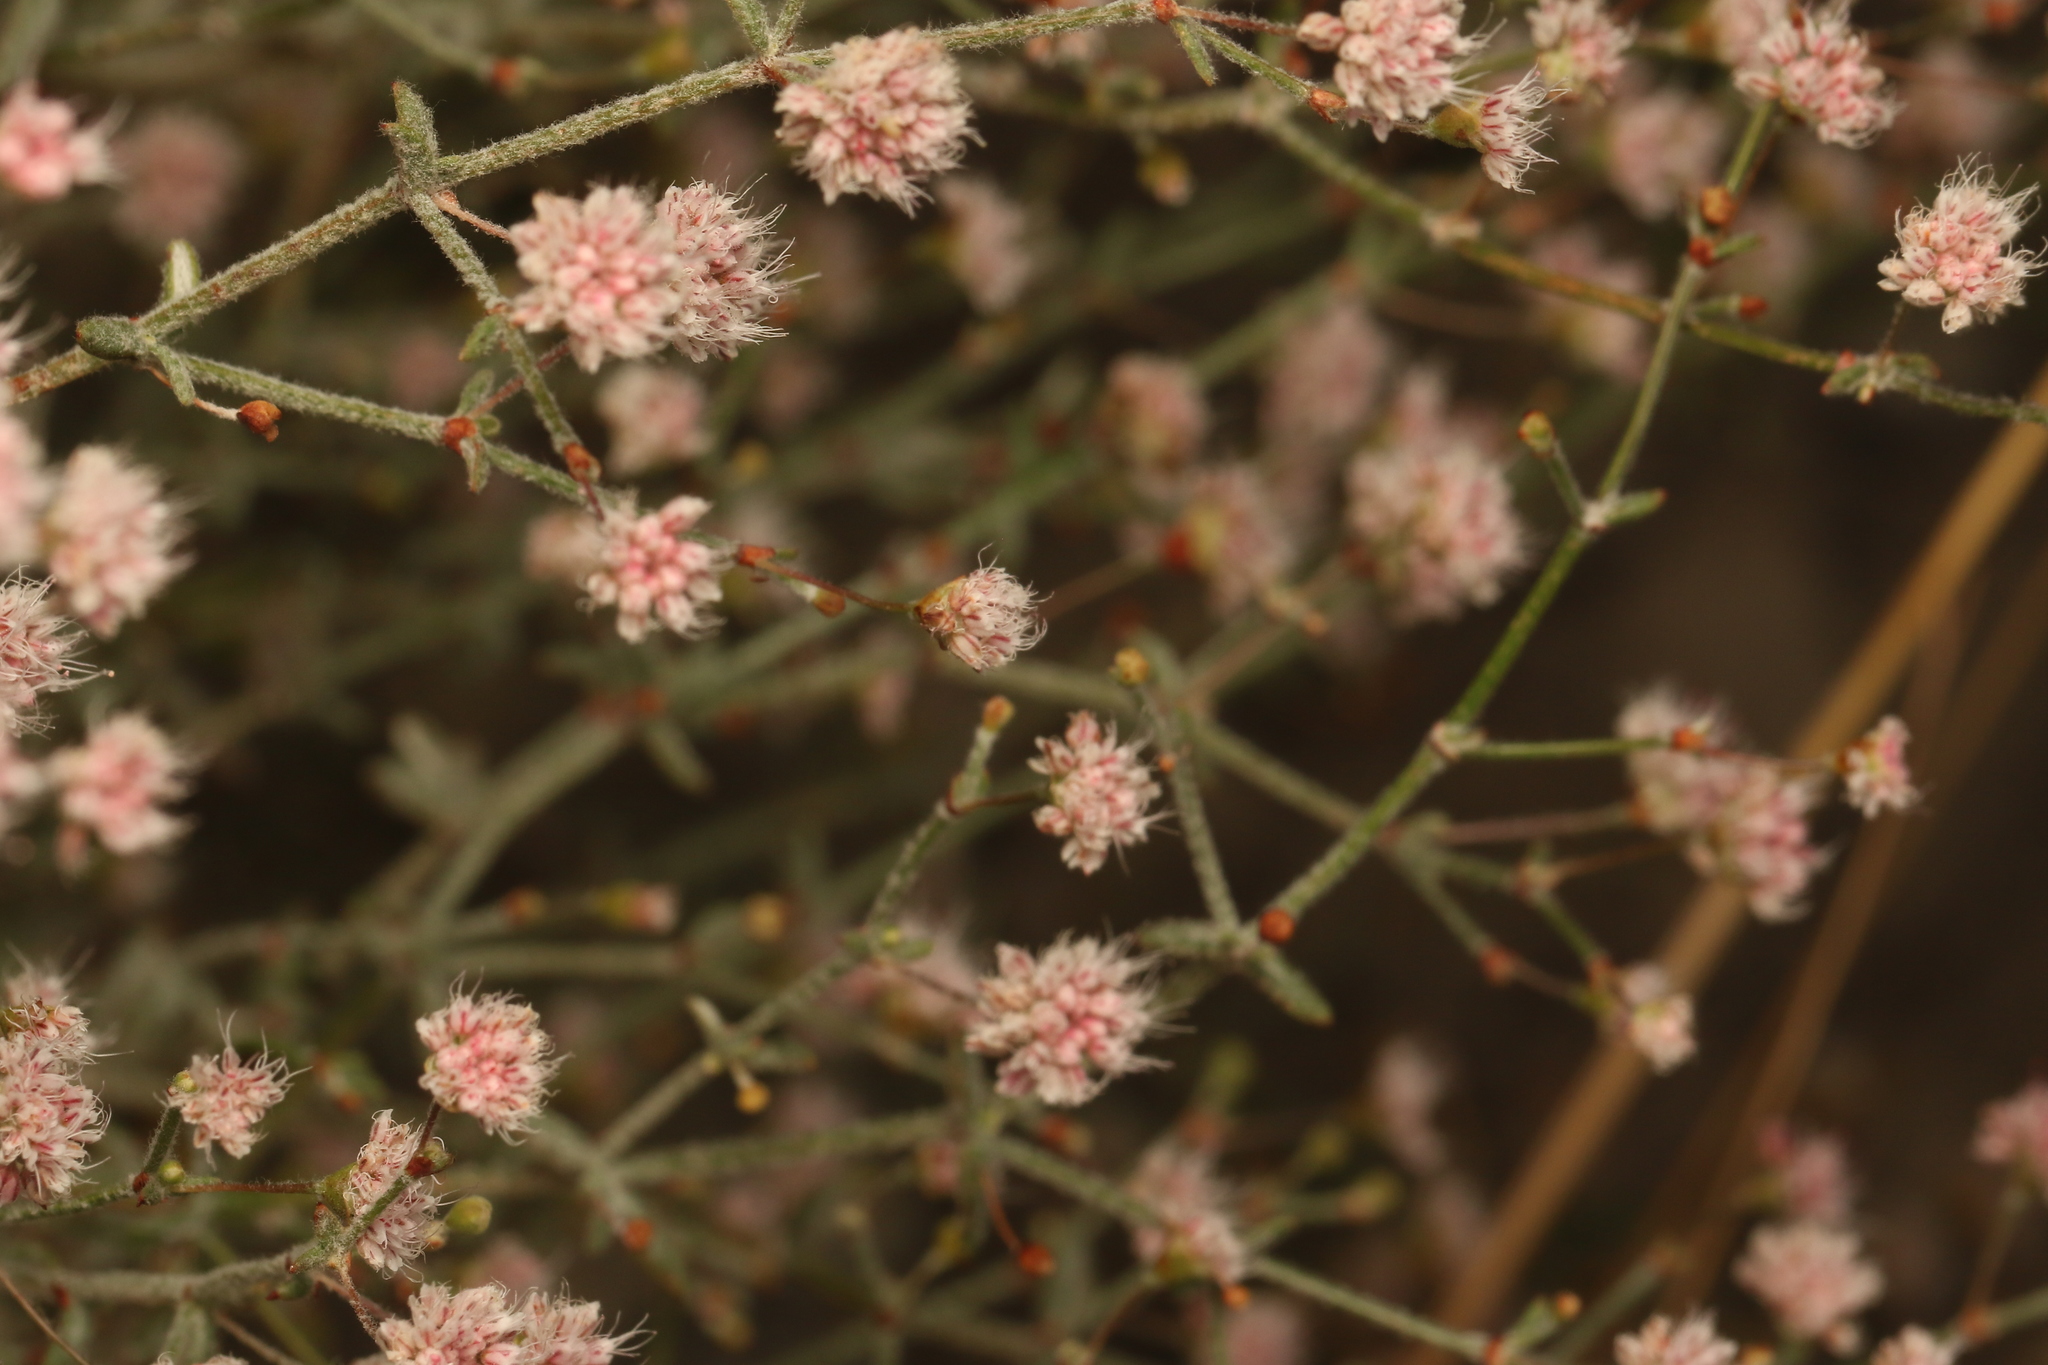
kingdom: Plantae
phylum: Tracheophyta
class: Magnoliopsida
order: Caryophyllales
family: Polygonaceae
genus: Eriogonum
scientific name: Eriogonum angulosum
